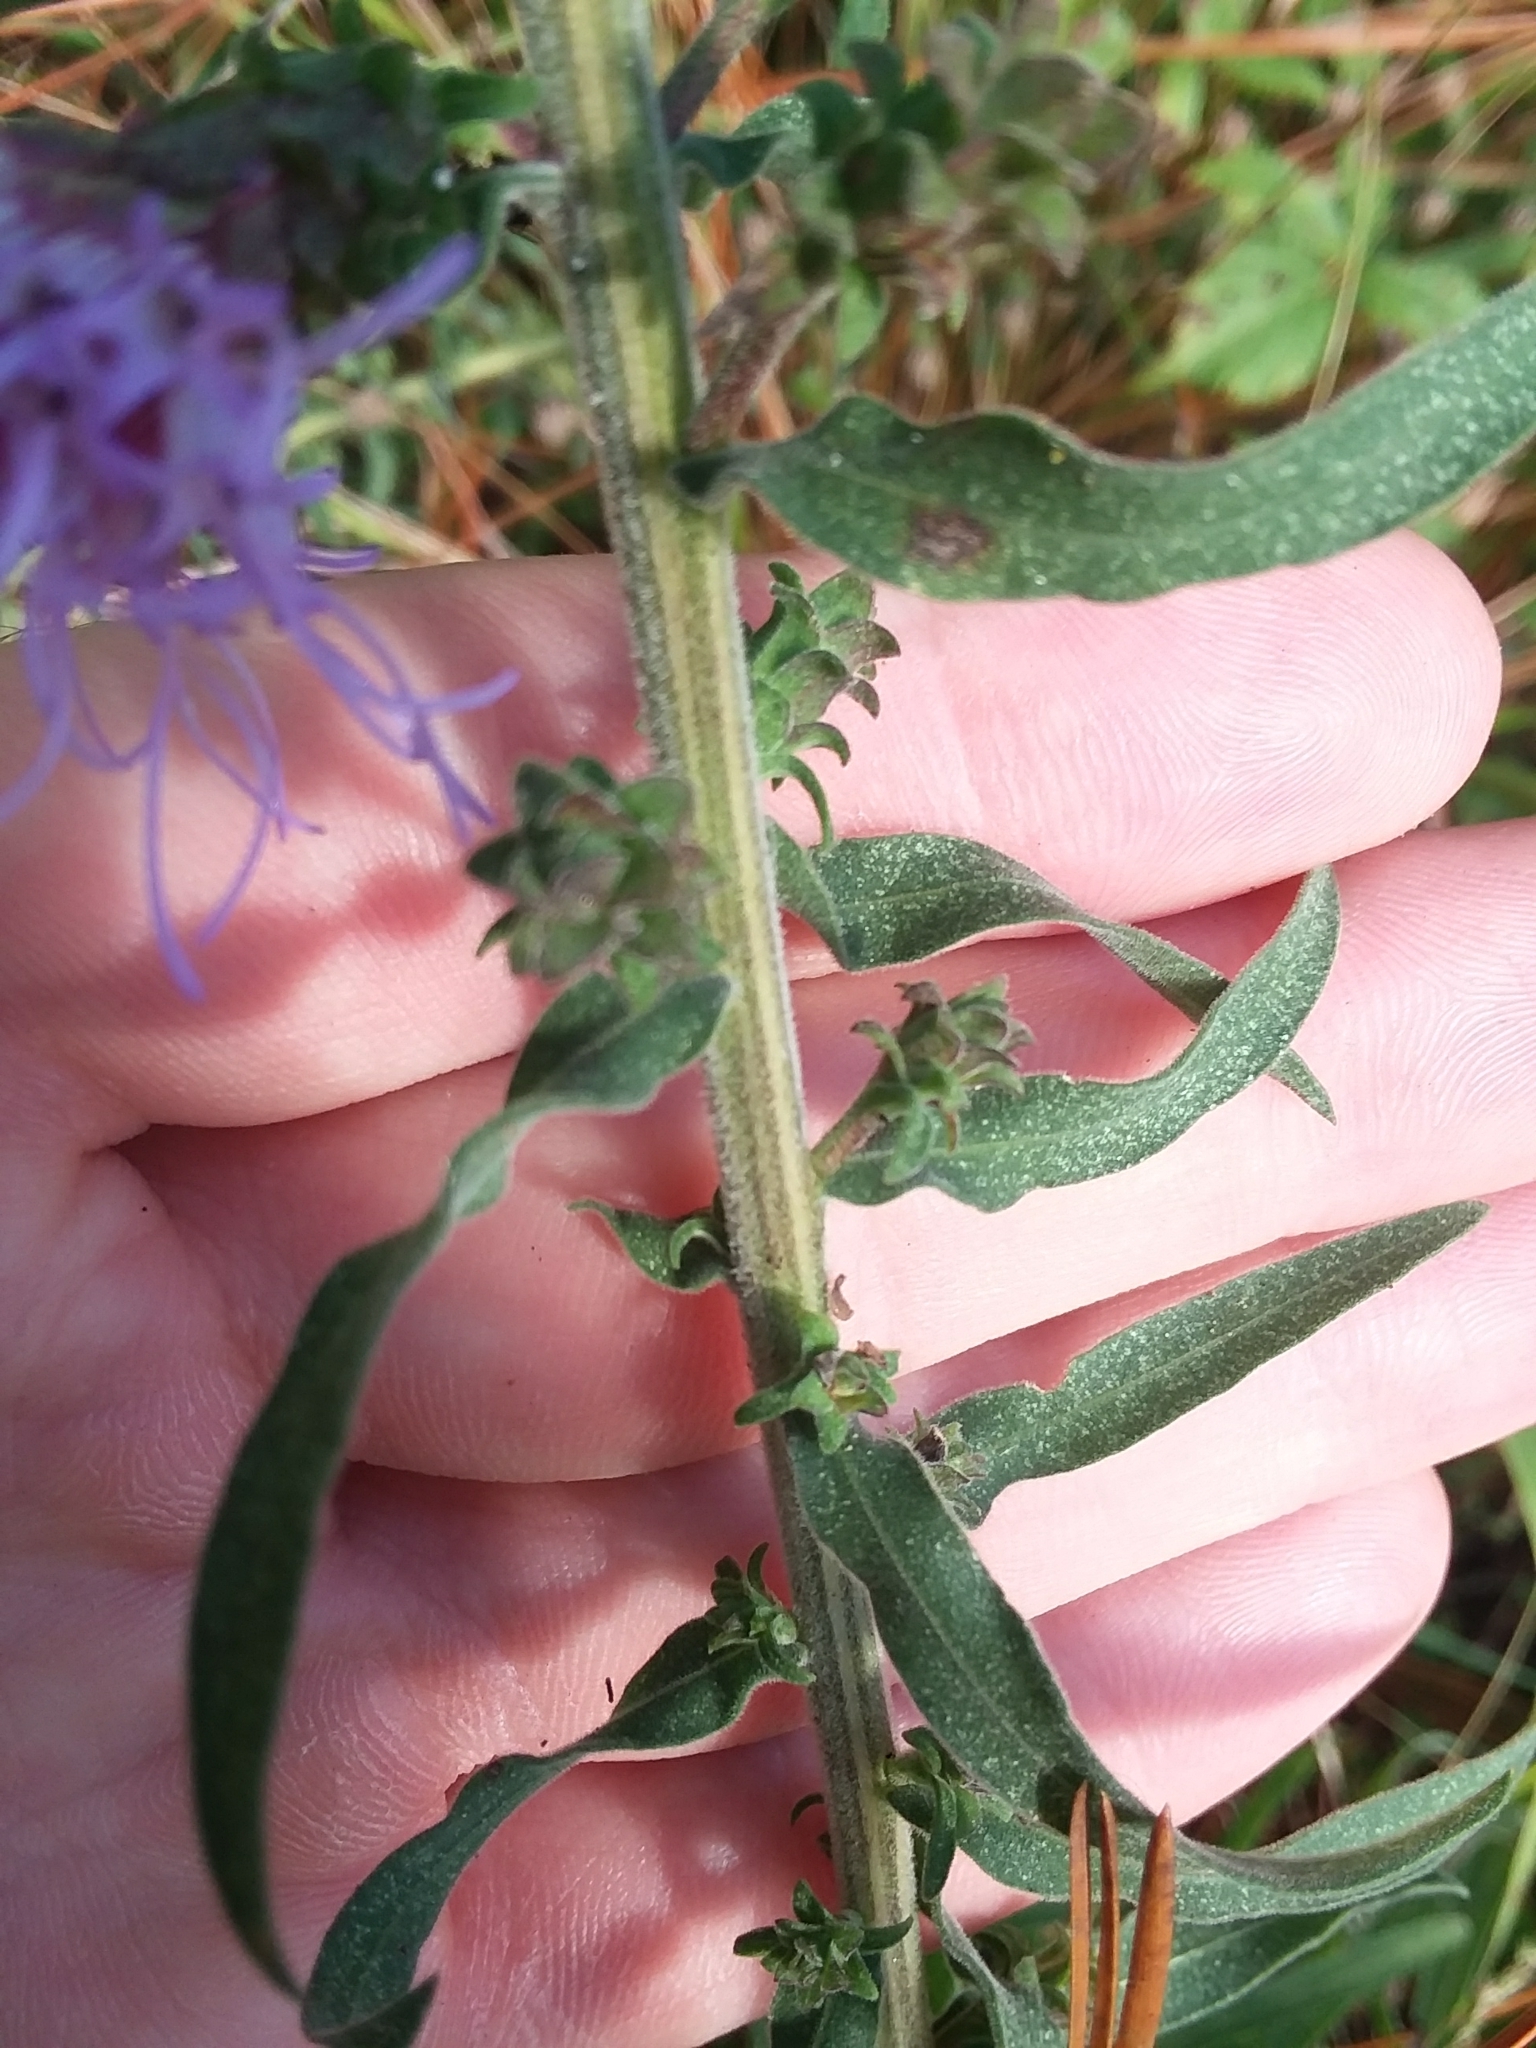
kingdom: Plantae
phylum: Tracheophyta
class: Magnoliopsida
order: Asterales
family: Asteraceae
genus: Liatris
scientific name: Liatris squarrulosa
